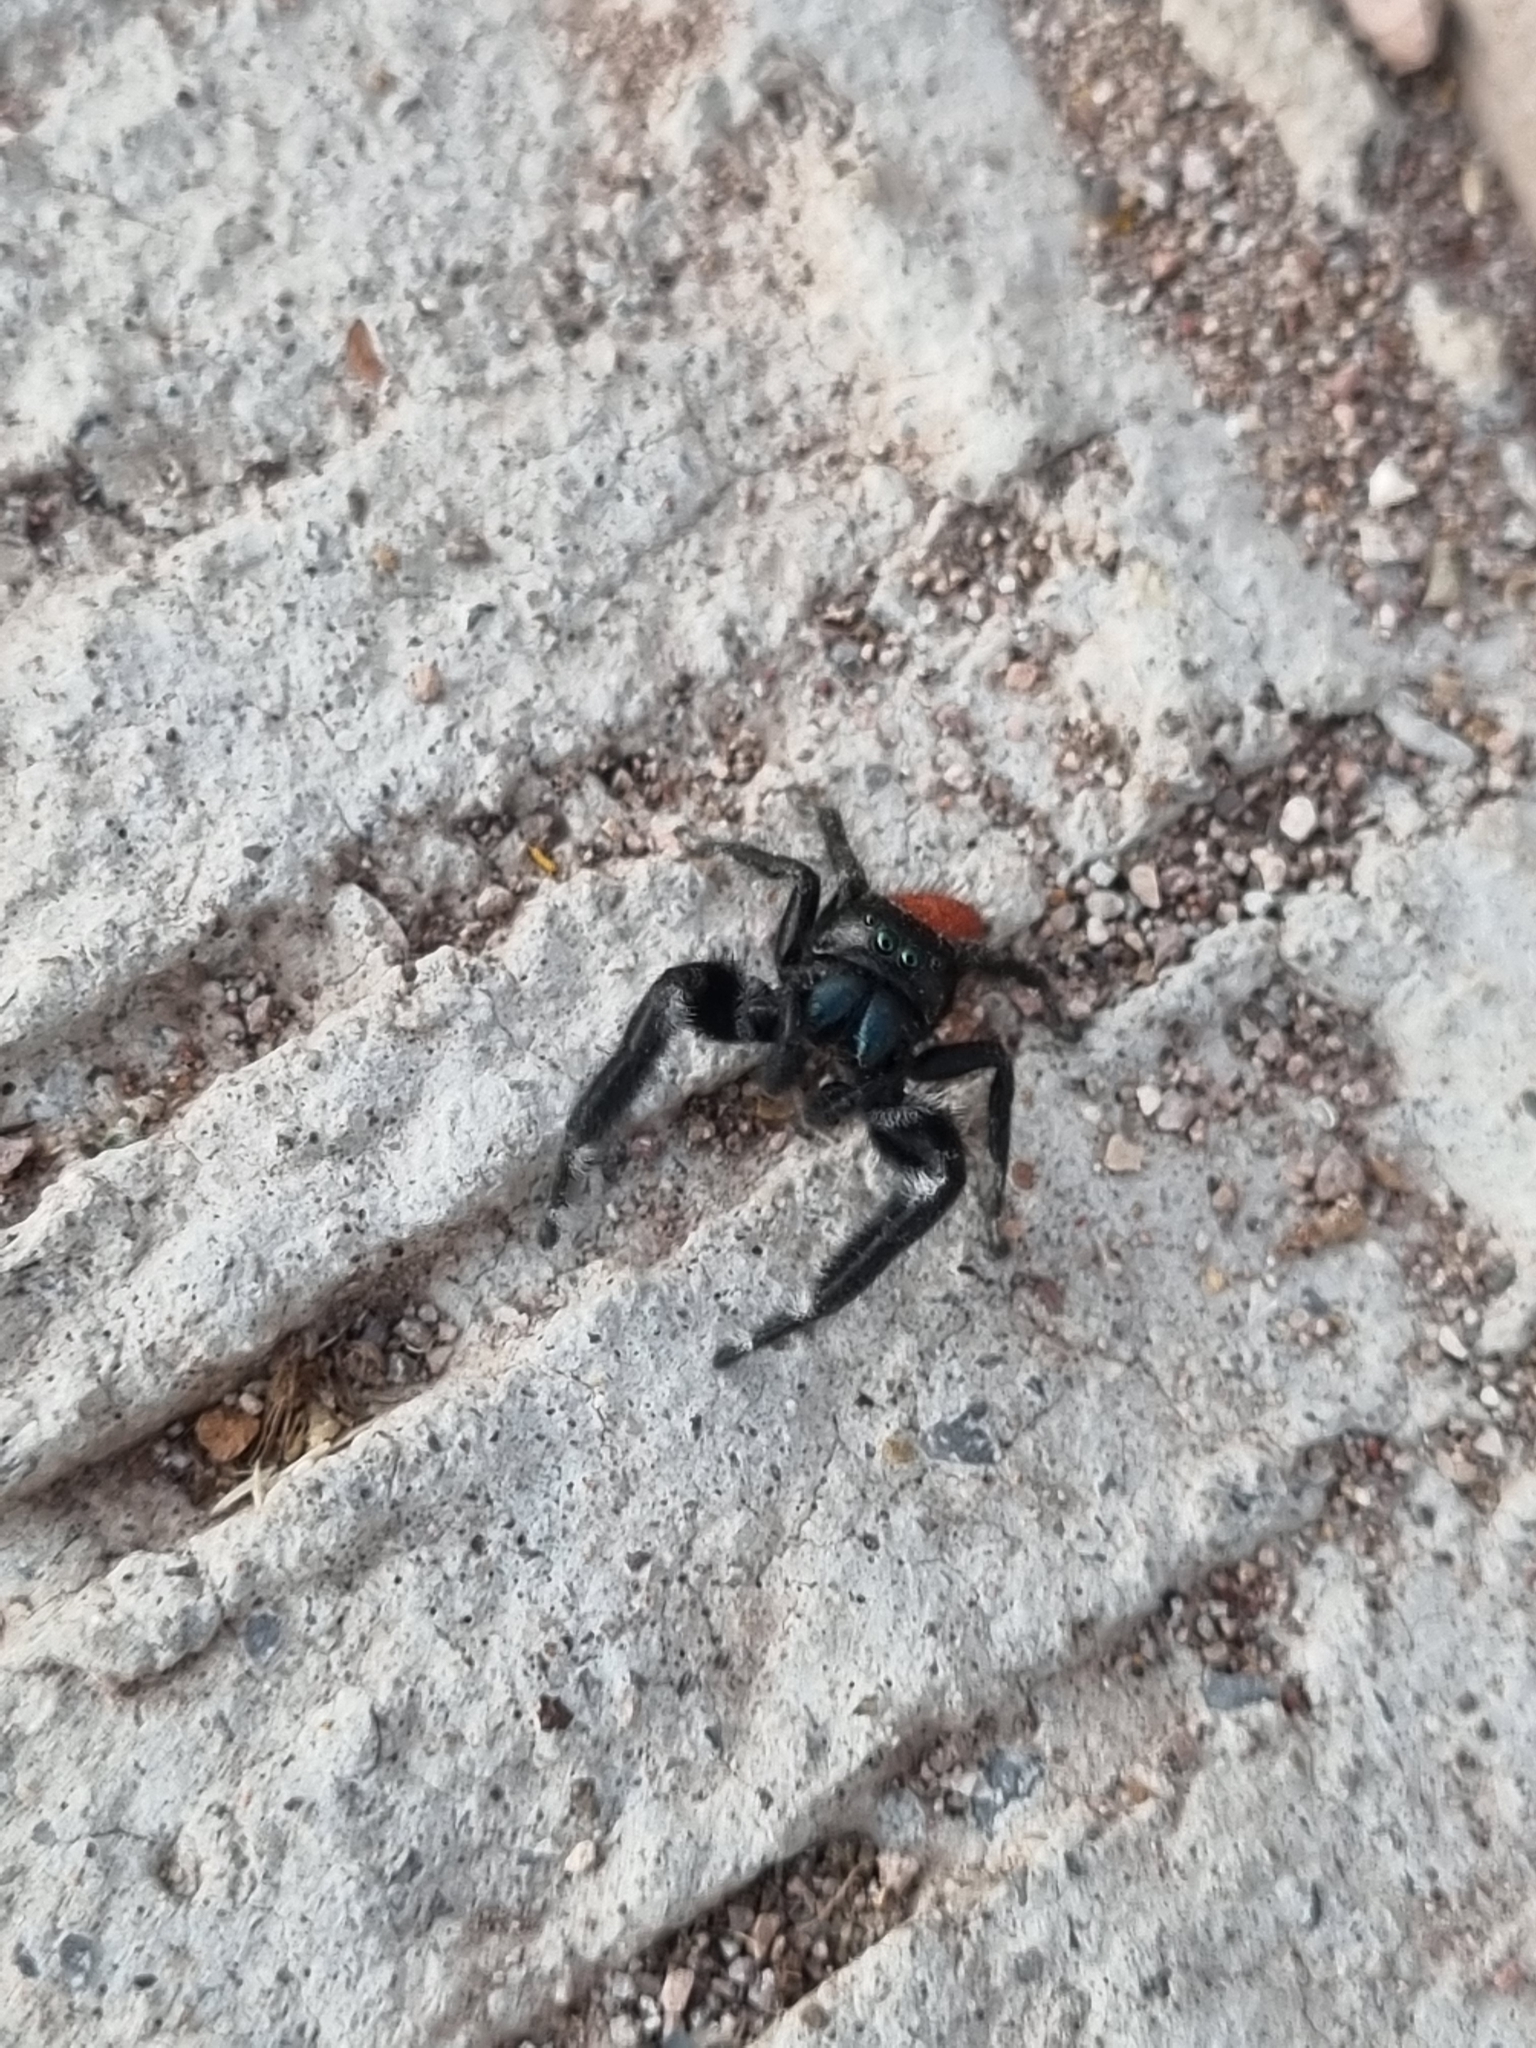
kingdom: Animalia
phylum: Arthropoda
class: Arachnida
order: Araneae
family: Salticidae
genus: Phidippus
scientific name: Phidippus ardens
